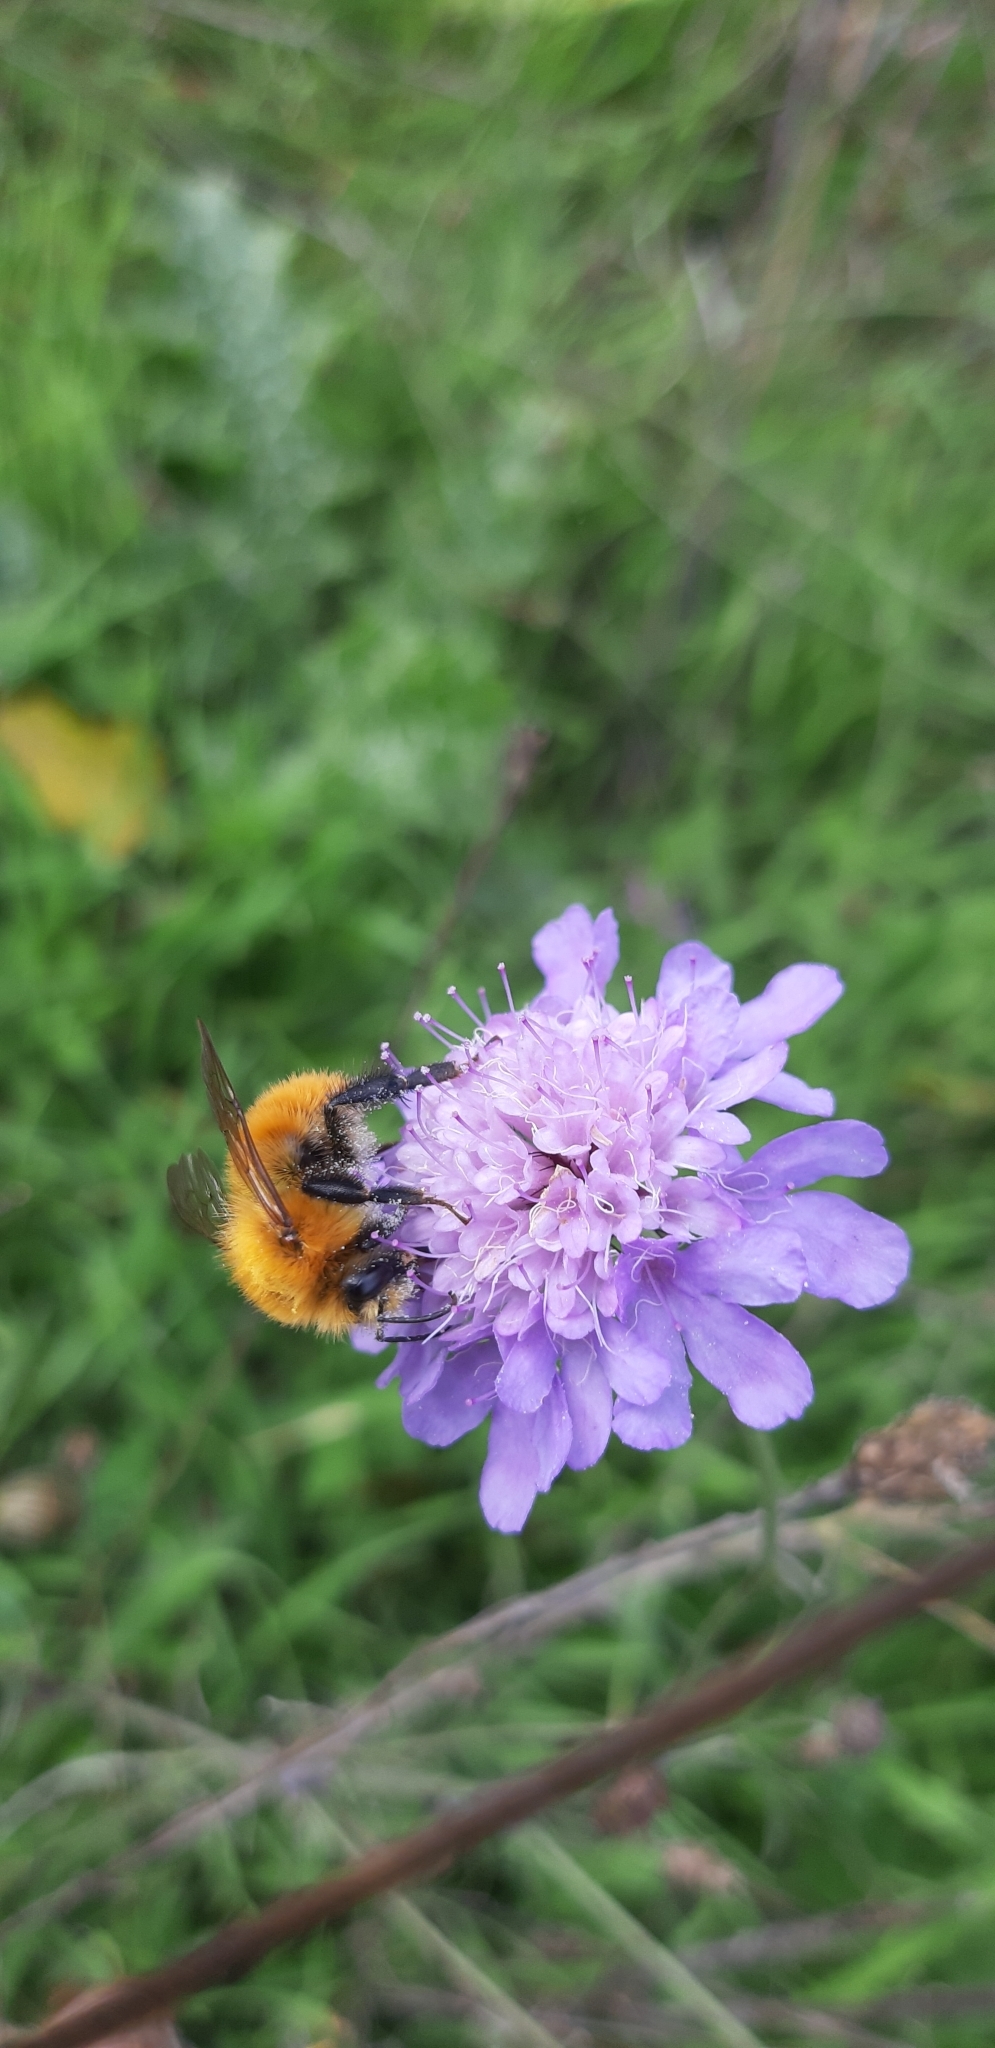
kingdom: Animalia
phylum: Arthropoda
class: Insecta
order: Hymenoptera
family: Apidae
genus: Bombus
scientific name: Bombus pascuorum
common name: Common carder bee
